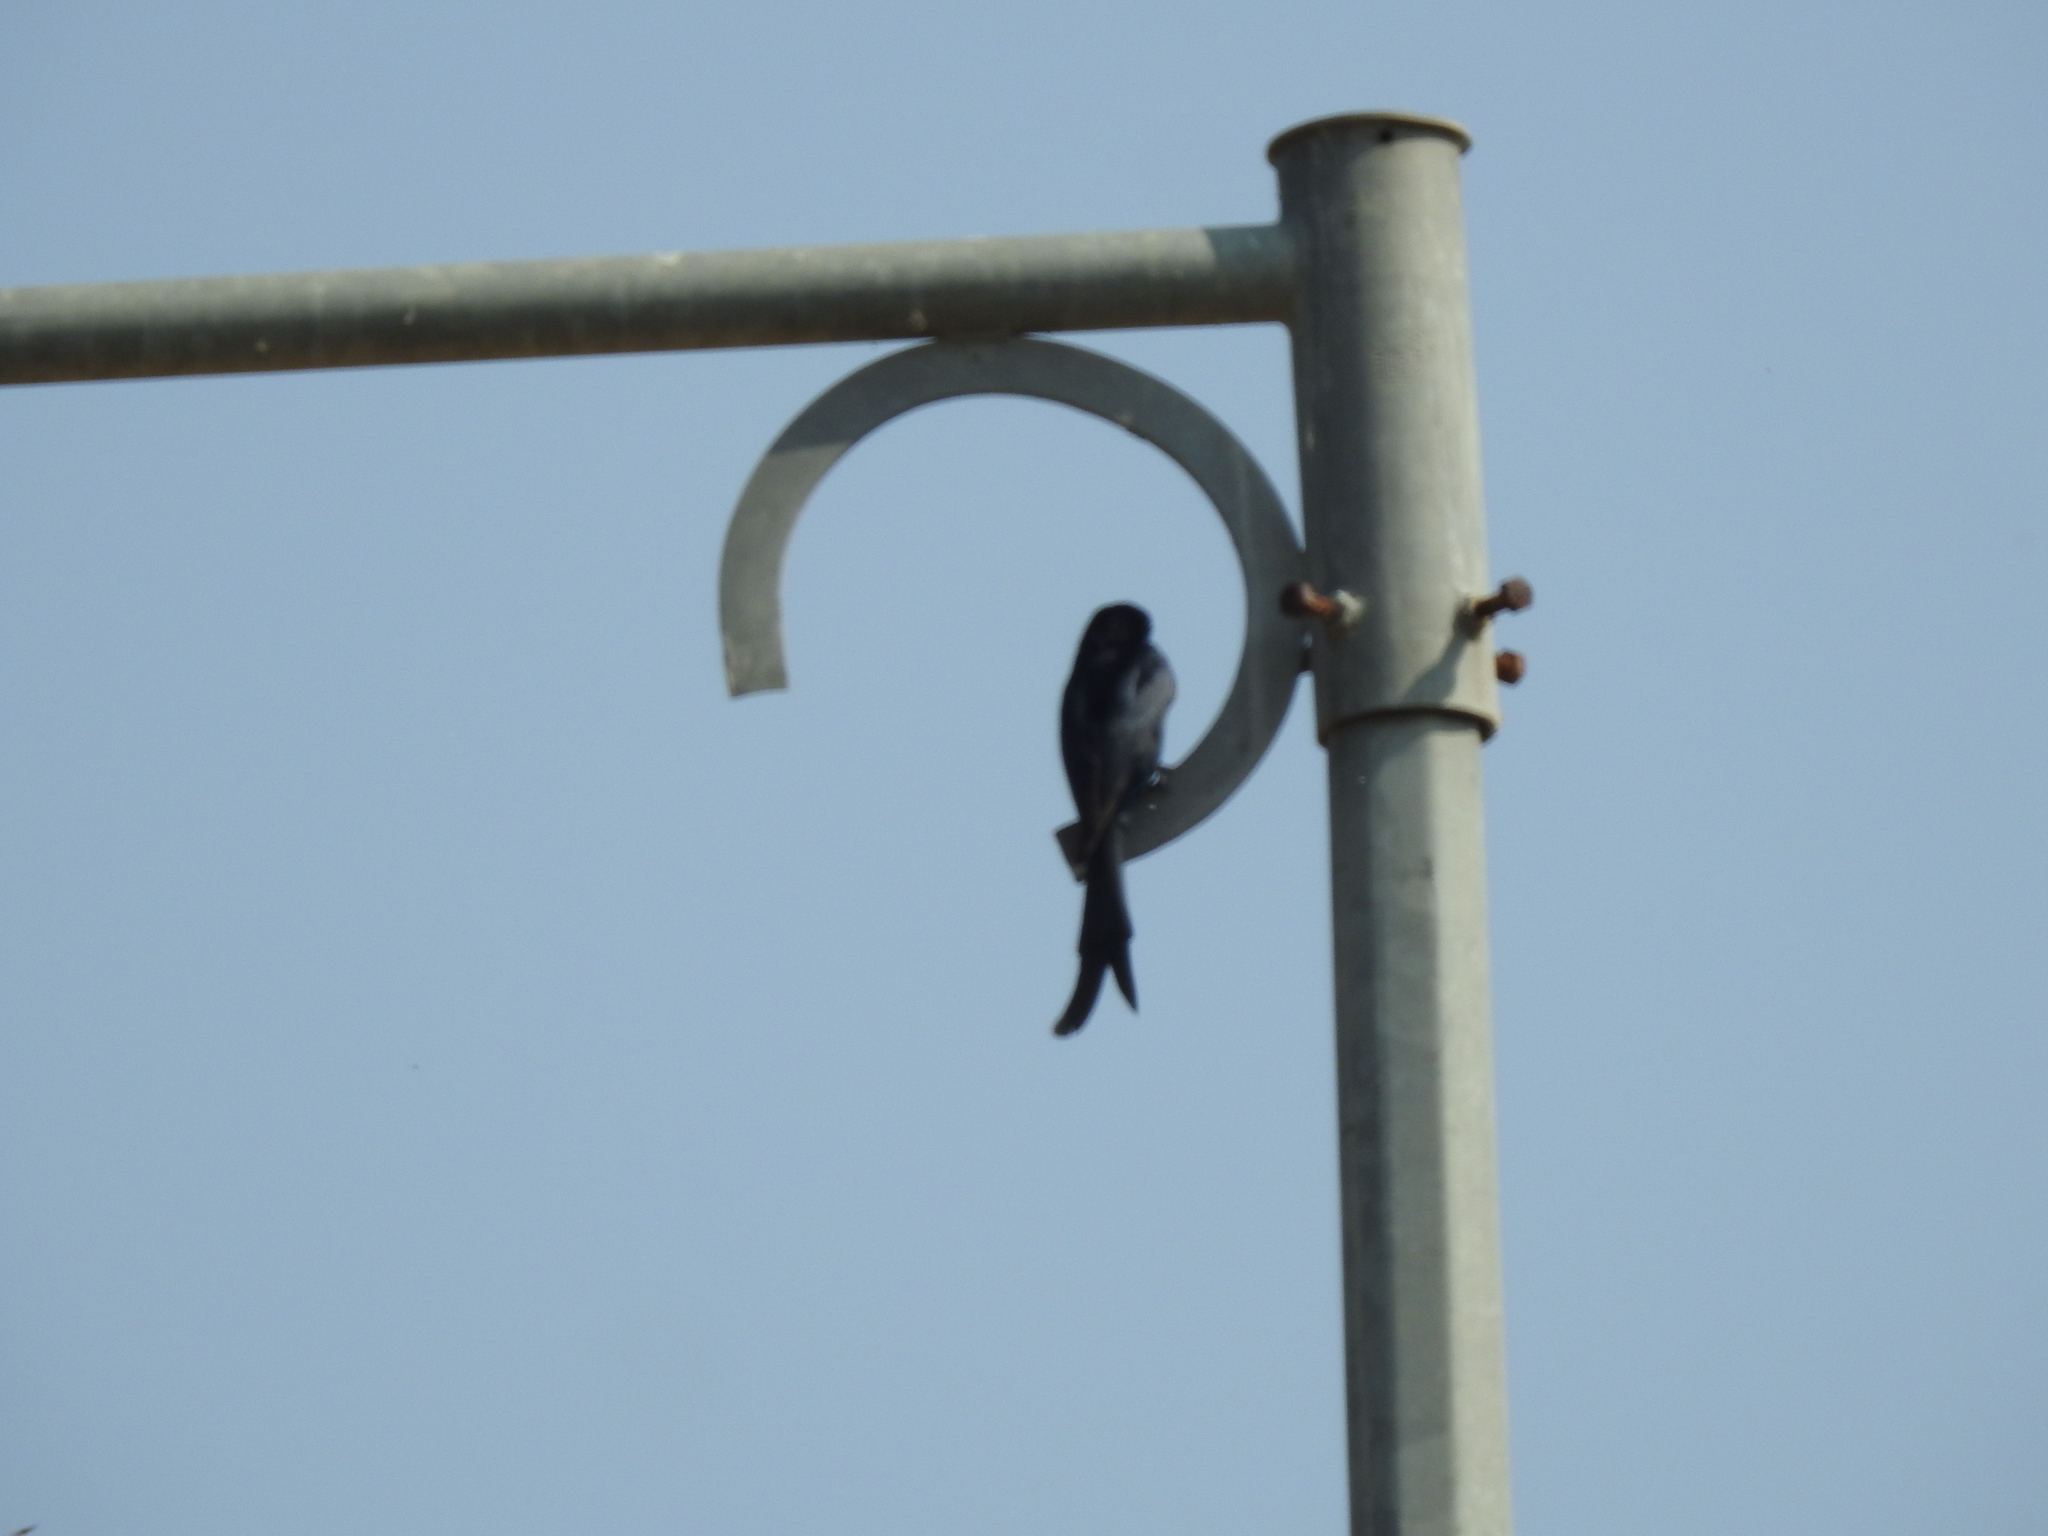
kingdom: Animalia
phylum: Chordata
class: Aves
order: Passeriformes
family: Dicruridae
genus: Dicrurus
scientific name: Dicrurus macrocercus
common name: Black drongo
